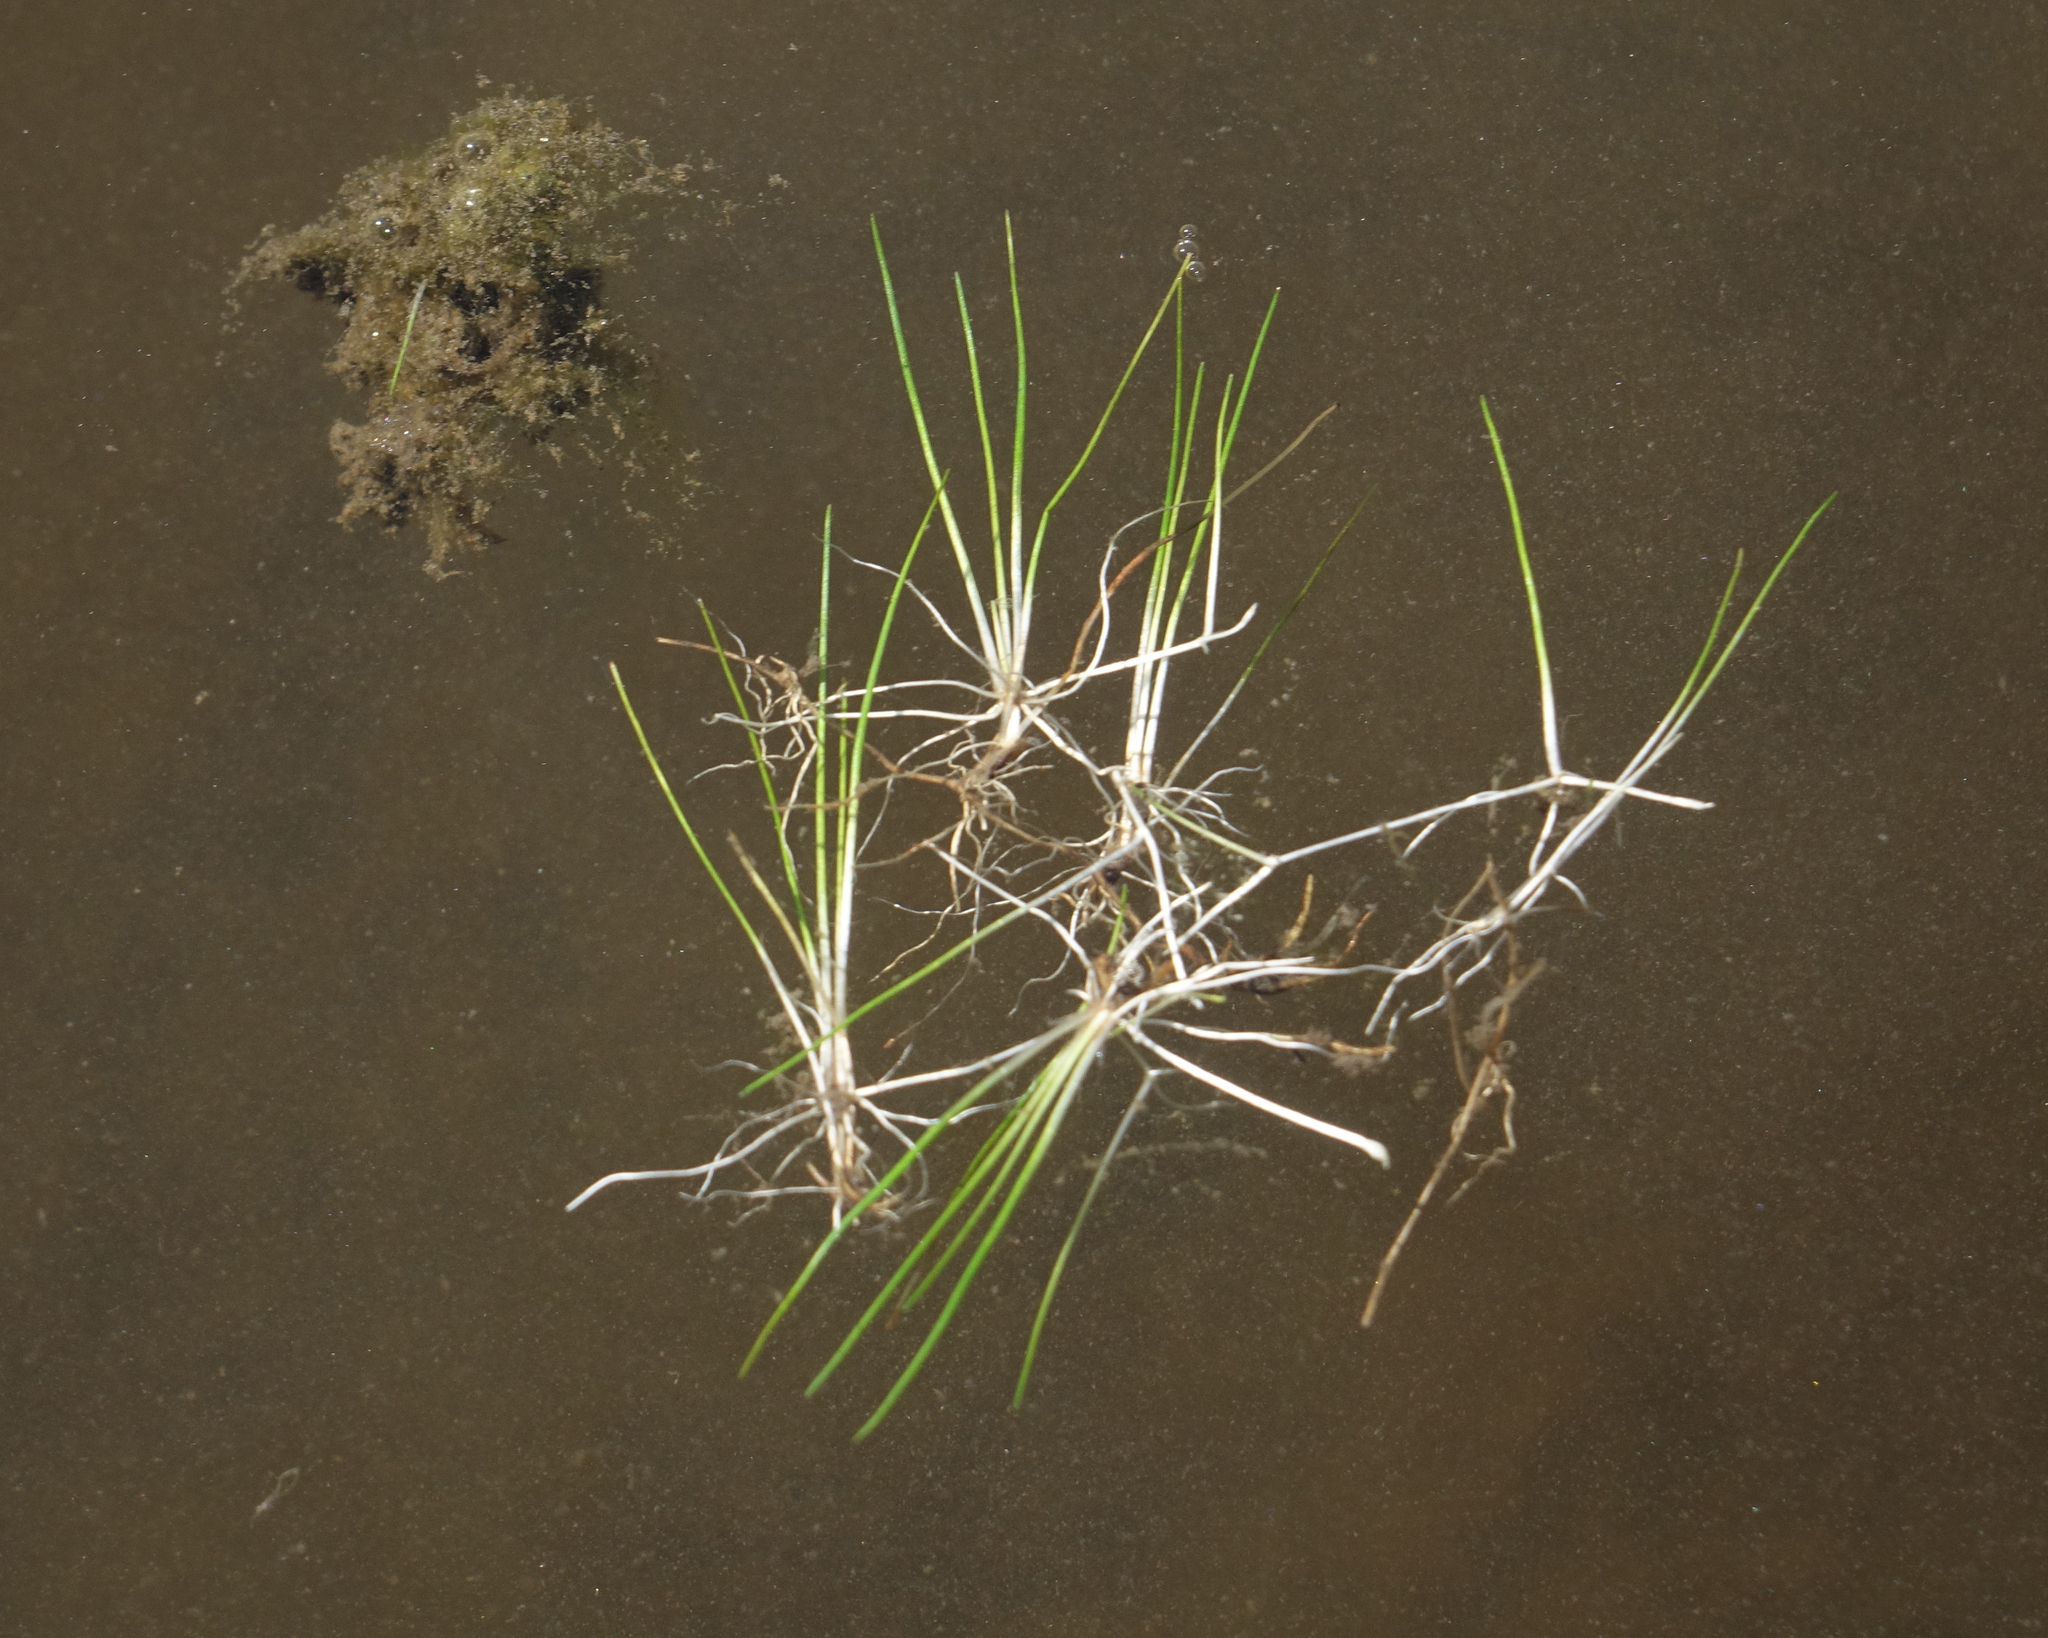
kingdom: Plantae
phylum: Tracheophyta
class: Lycopodiopsida
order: Isoetales
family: Isoetaceae
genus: Isoetes
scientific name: Isoetes lacustris
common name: Common quillwort
